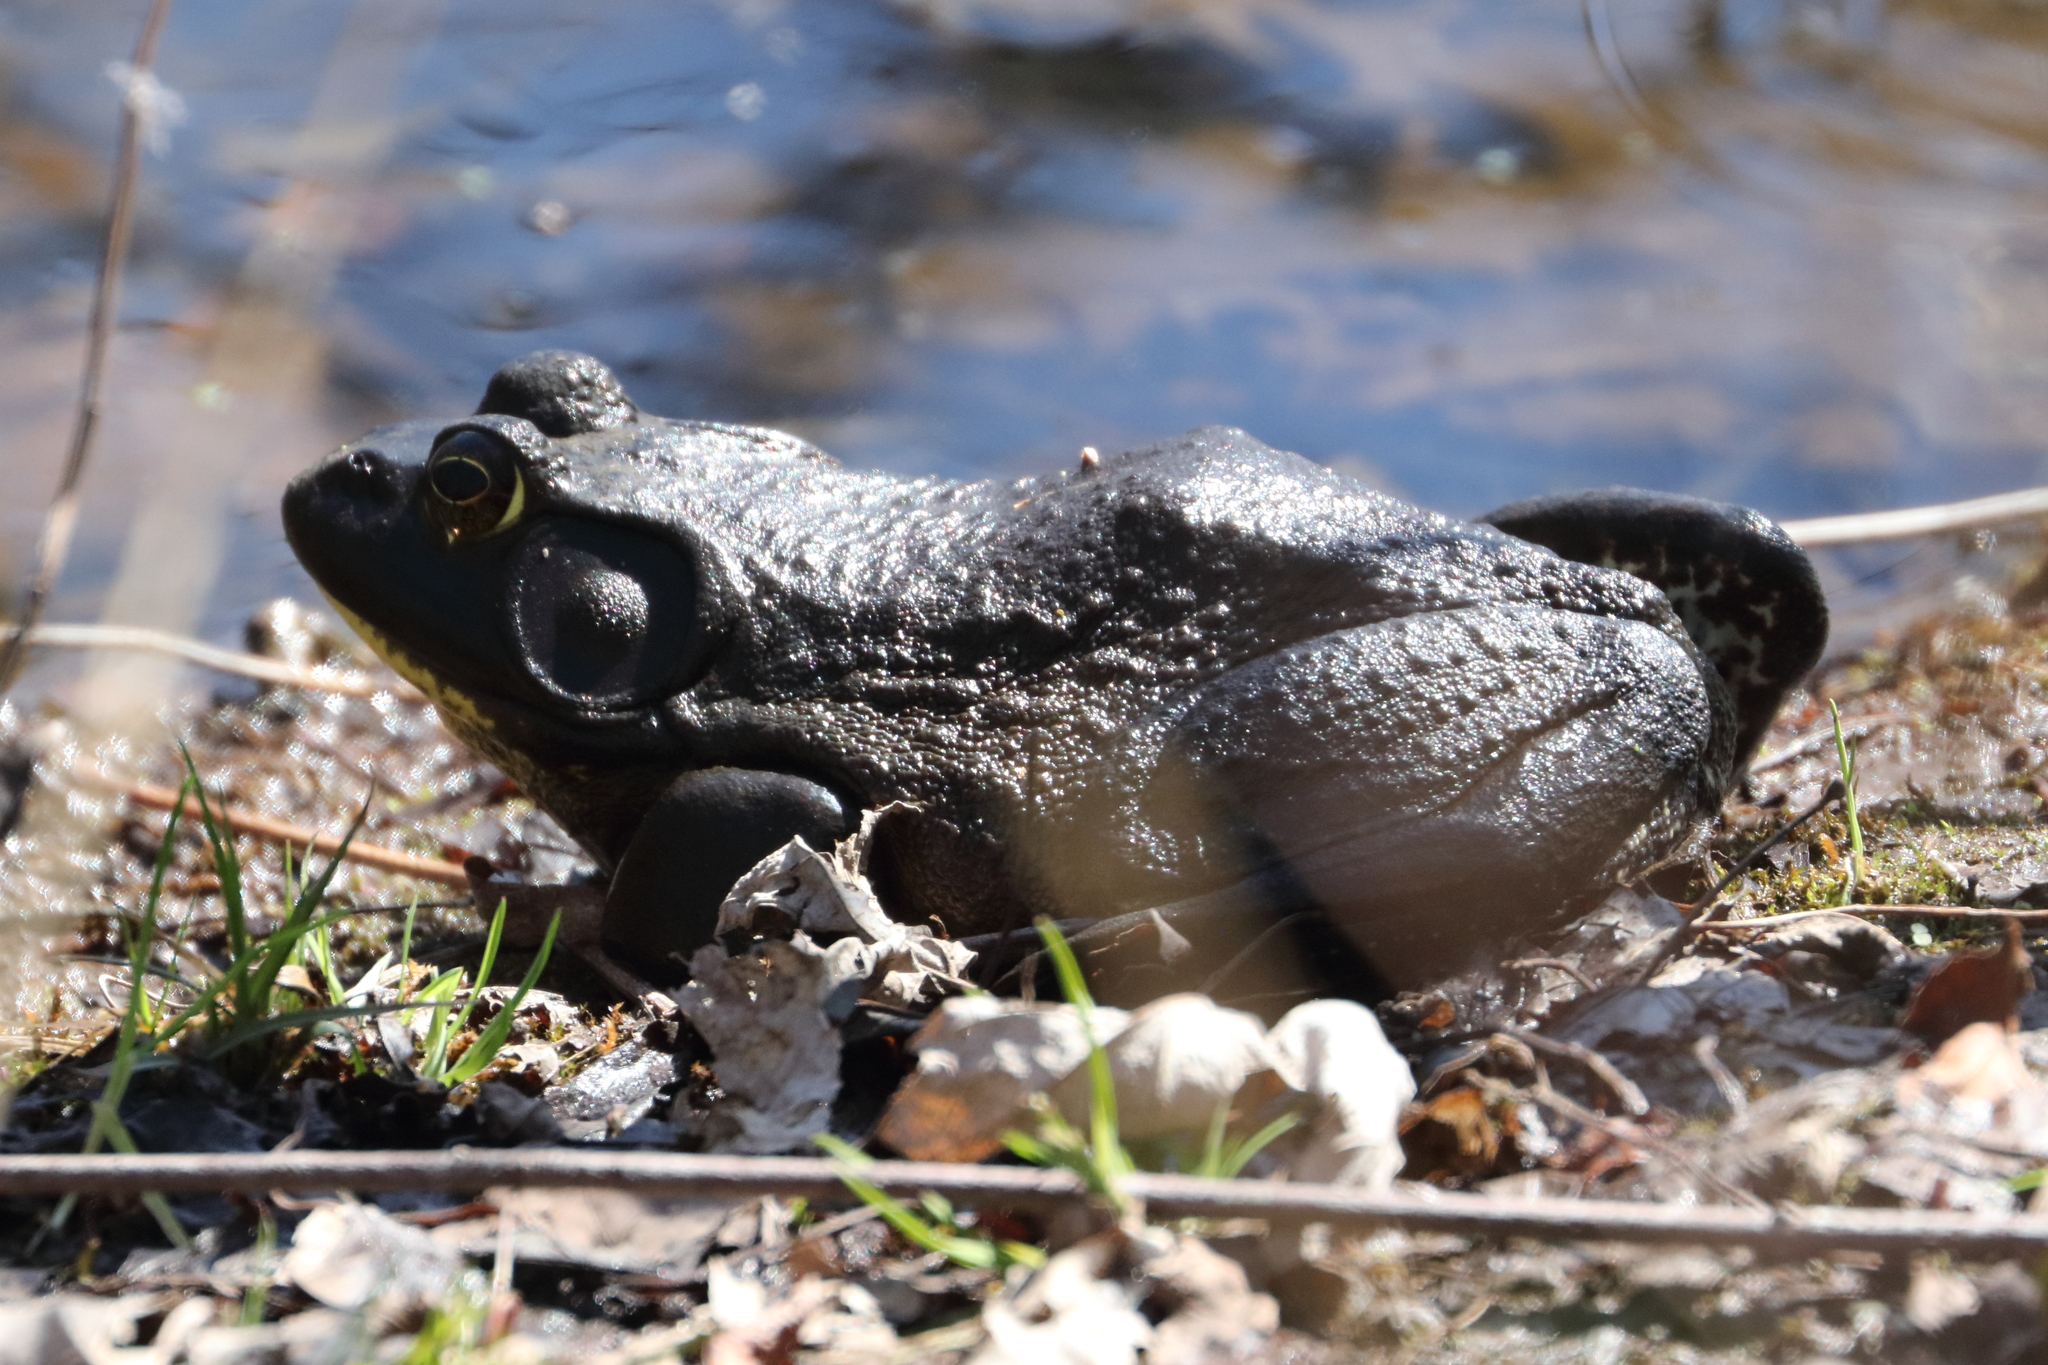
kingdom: Animalia
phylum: Chordata
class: Amphibia
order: Anura
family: Ranidae
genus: Lithobates
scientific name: Lithobates catesbeianus
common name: American bullfrog
